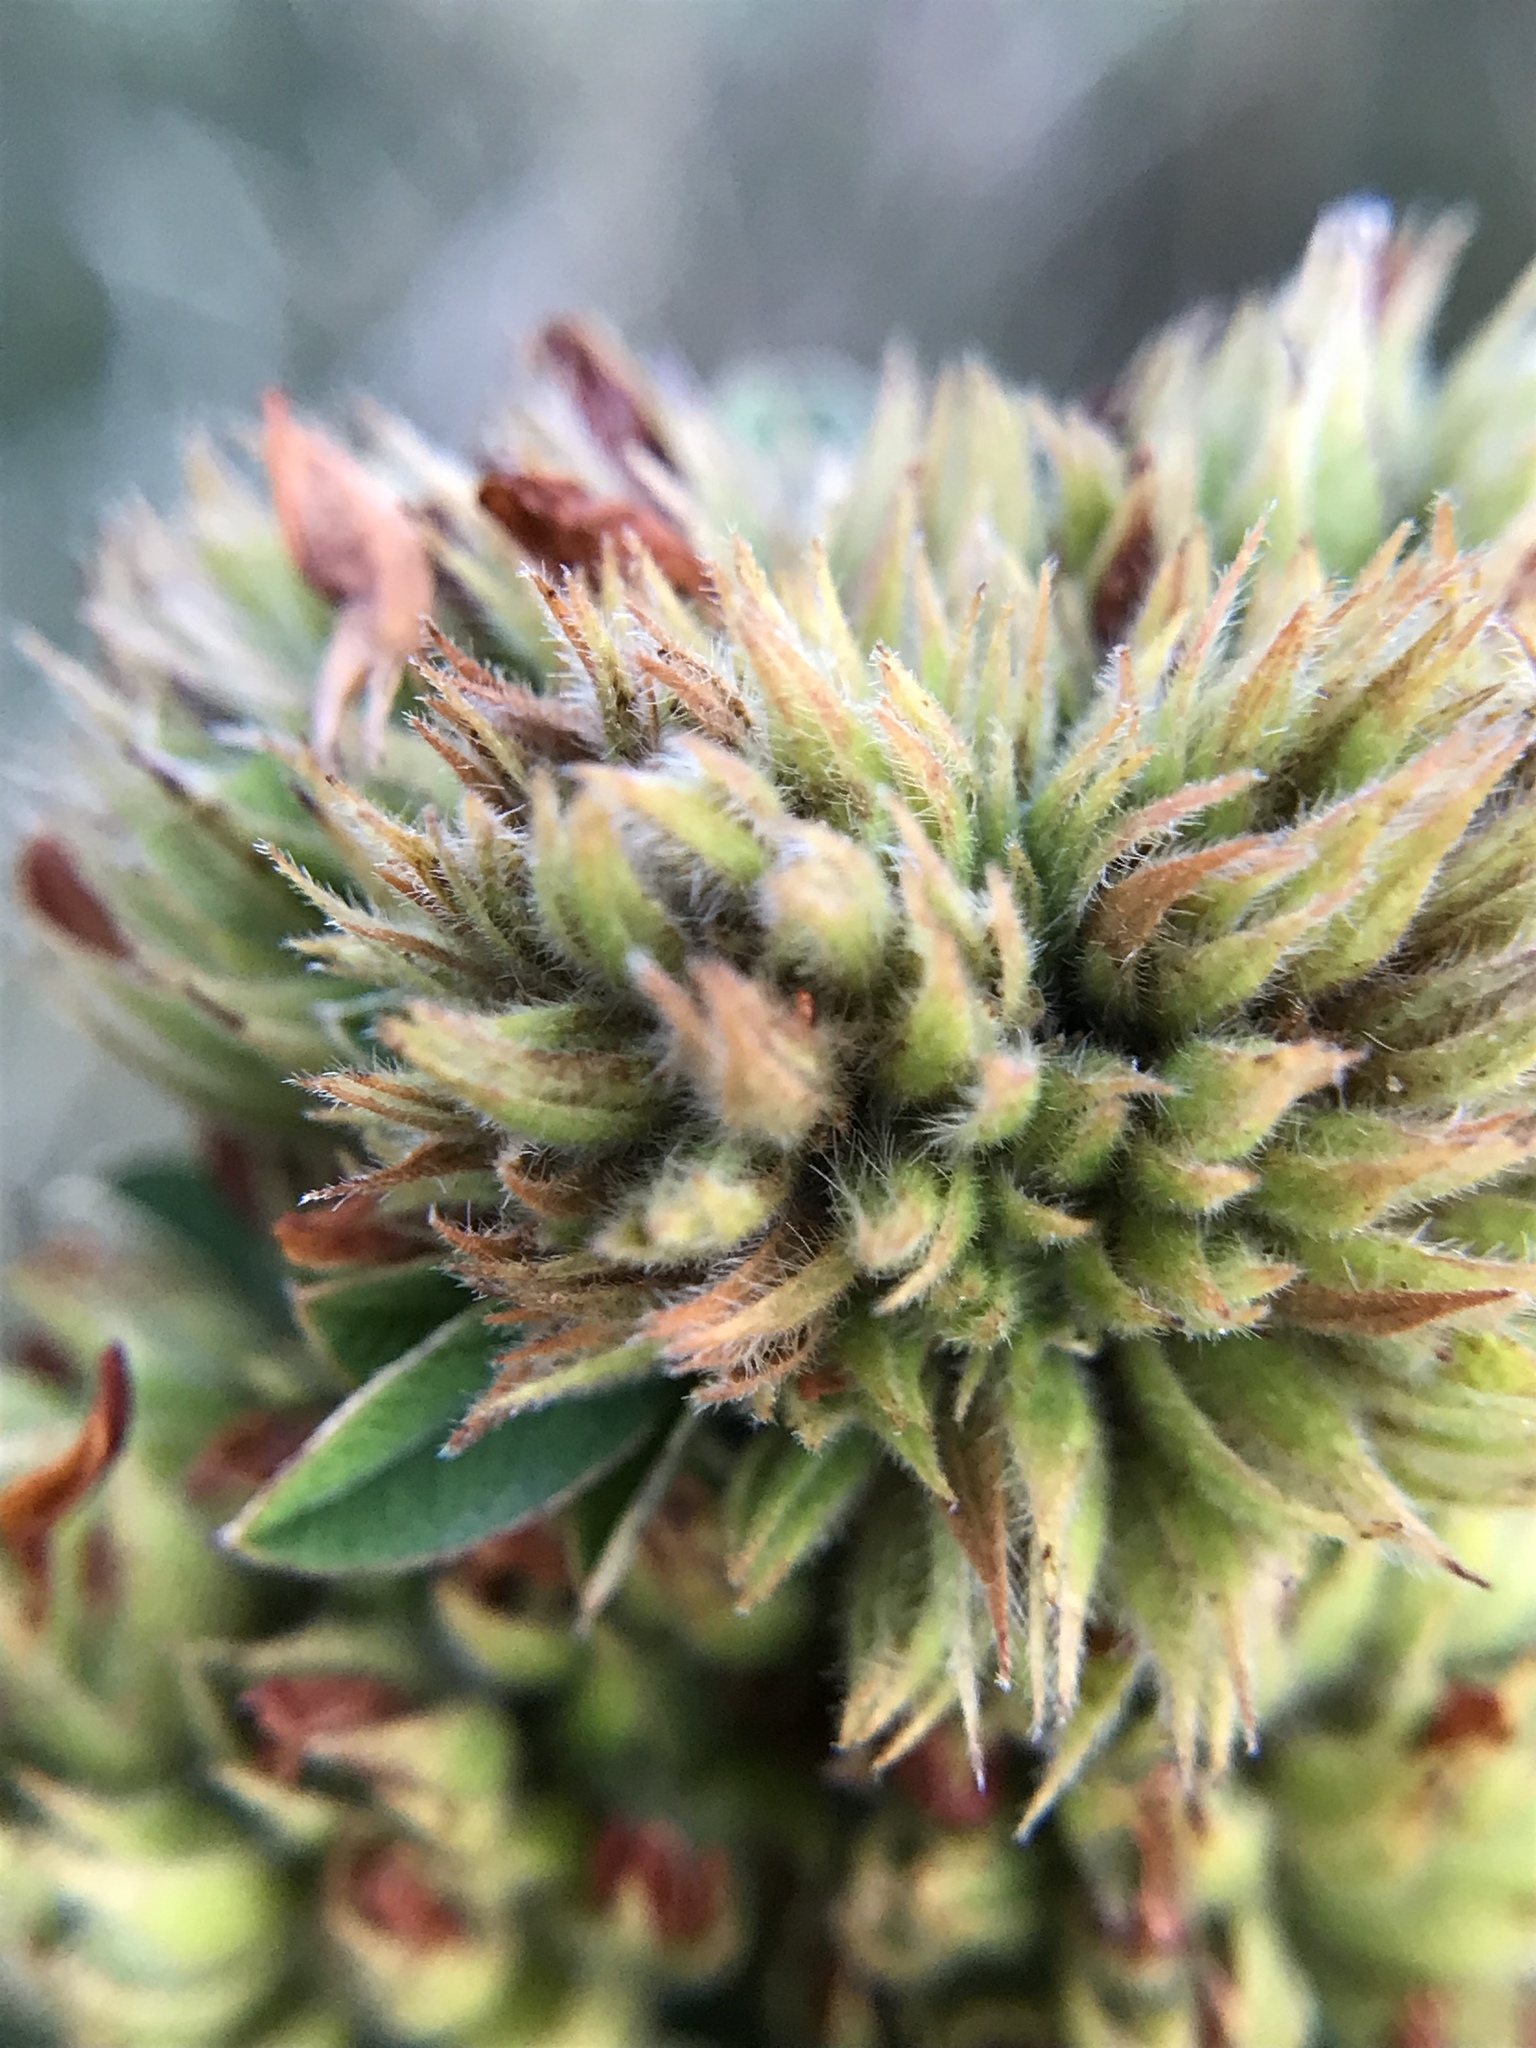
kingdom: Plantae
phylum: Tracheophyta
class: Magnoliopsida
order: Fabales
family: Fabaceae
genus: Lespedeza
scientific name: Lespedeza capitata
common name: Dusty clover
